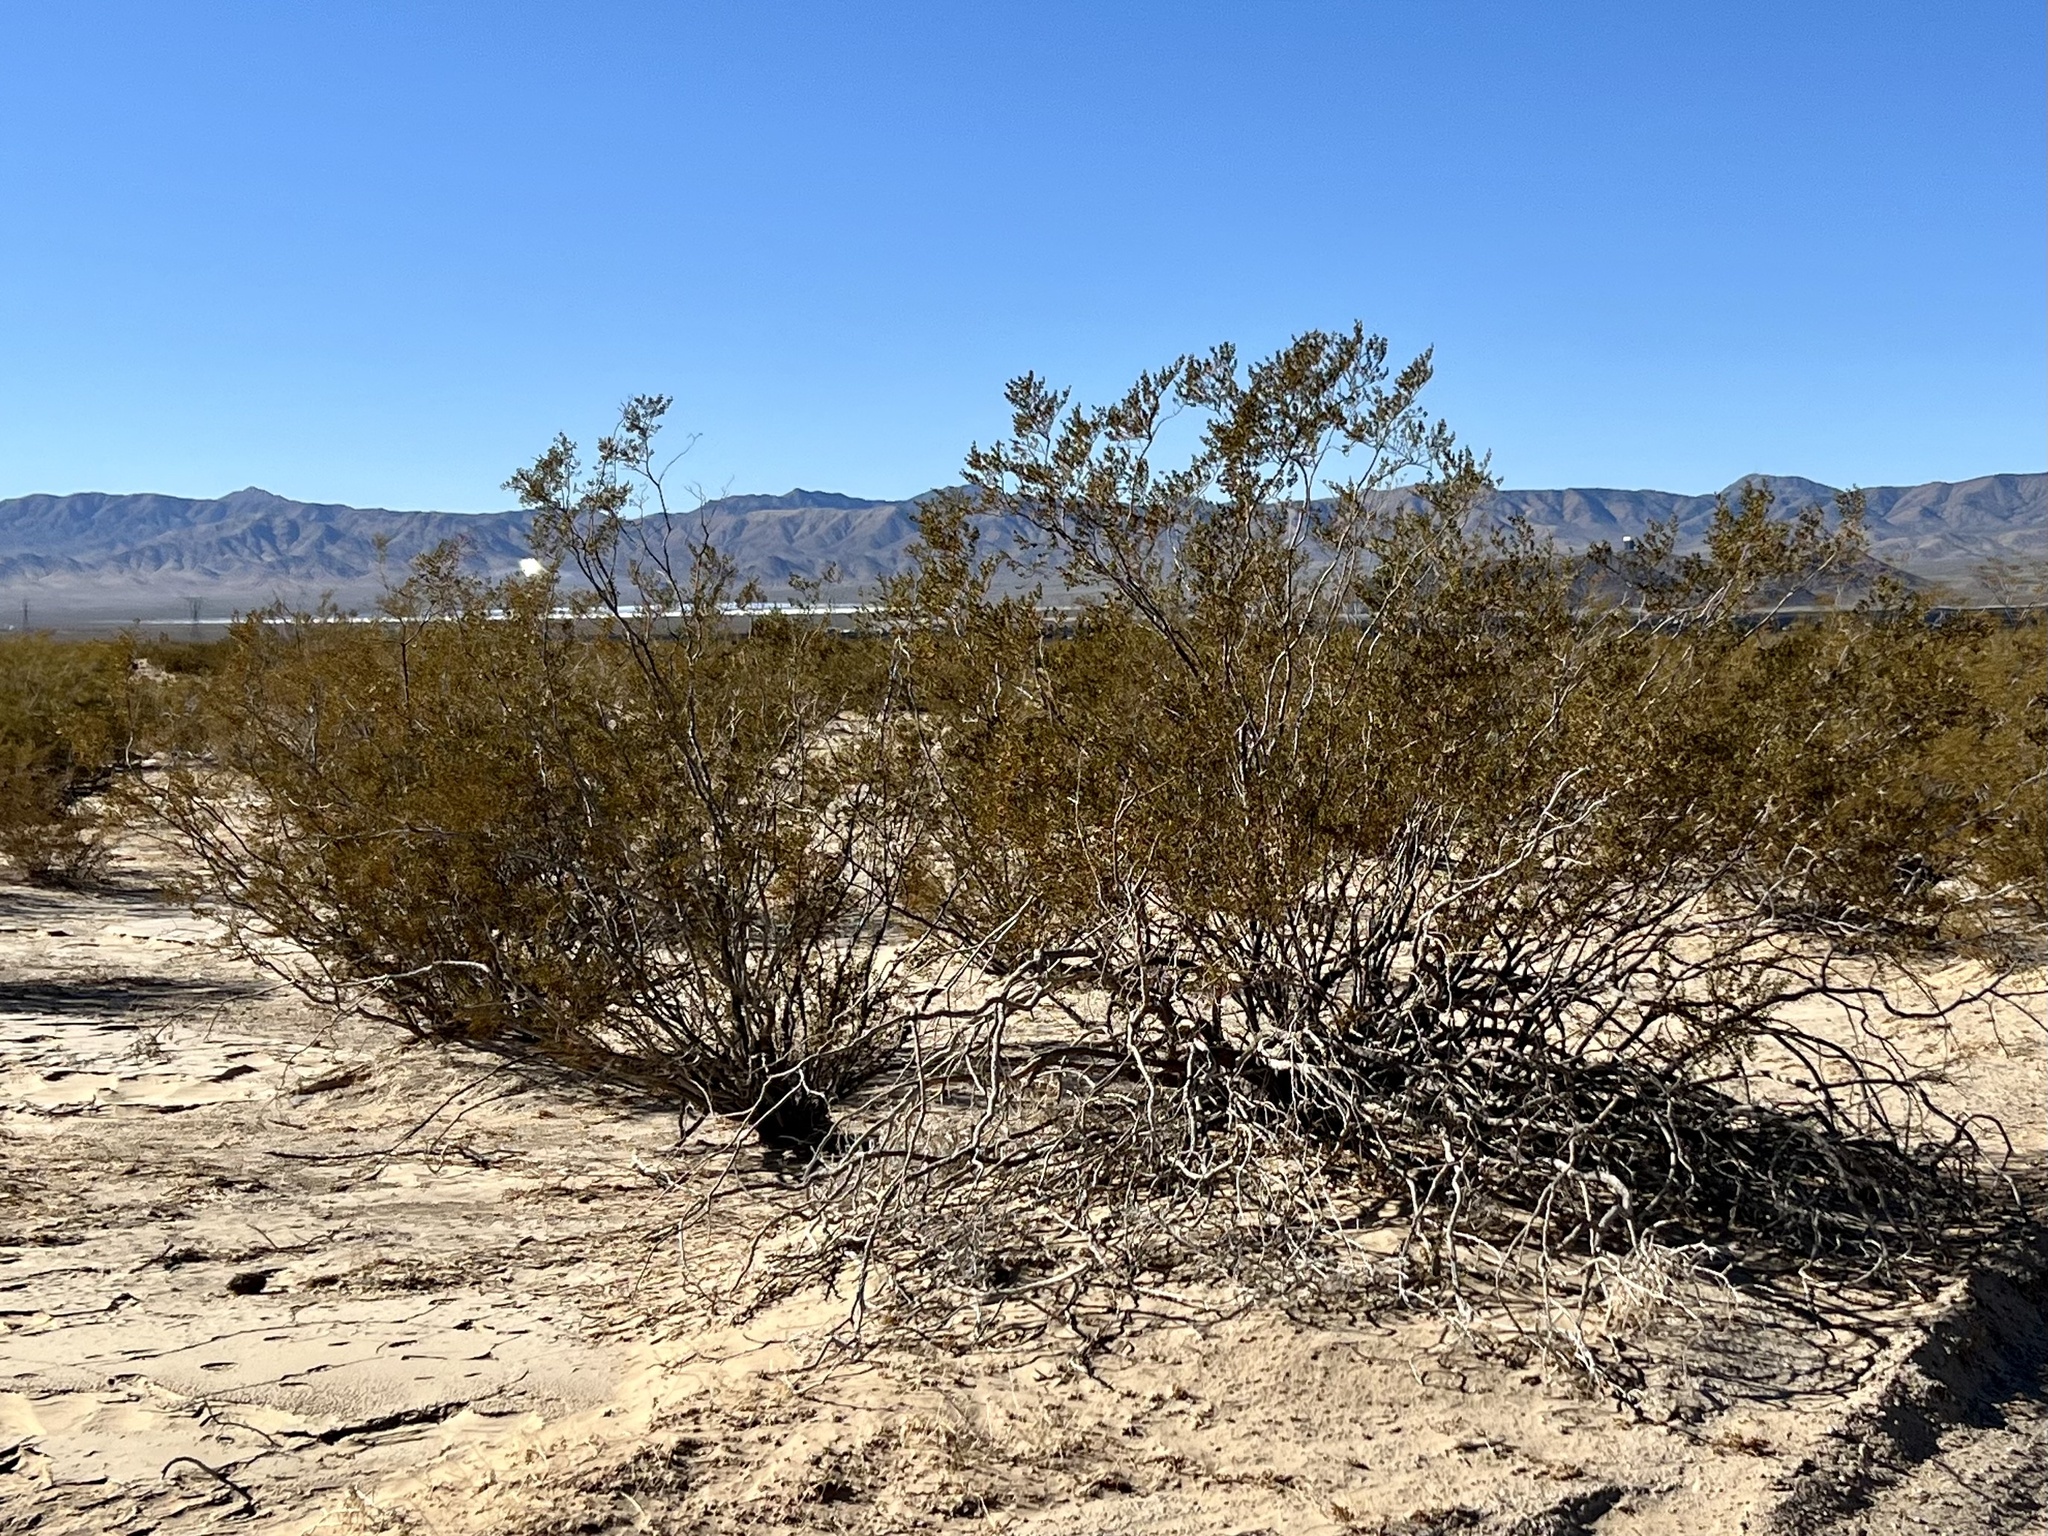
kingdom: Plantae
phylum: Tracheophyta
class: Magnoliopsida
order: Zygophyllales
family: Zygophyllaceae
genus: Larrea
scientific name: Larrea tridentata
